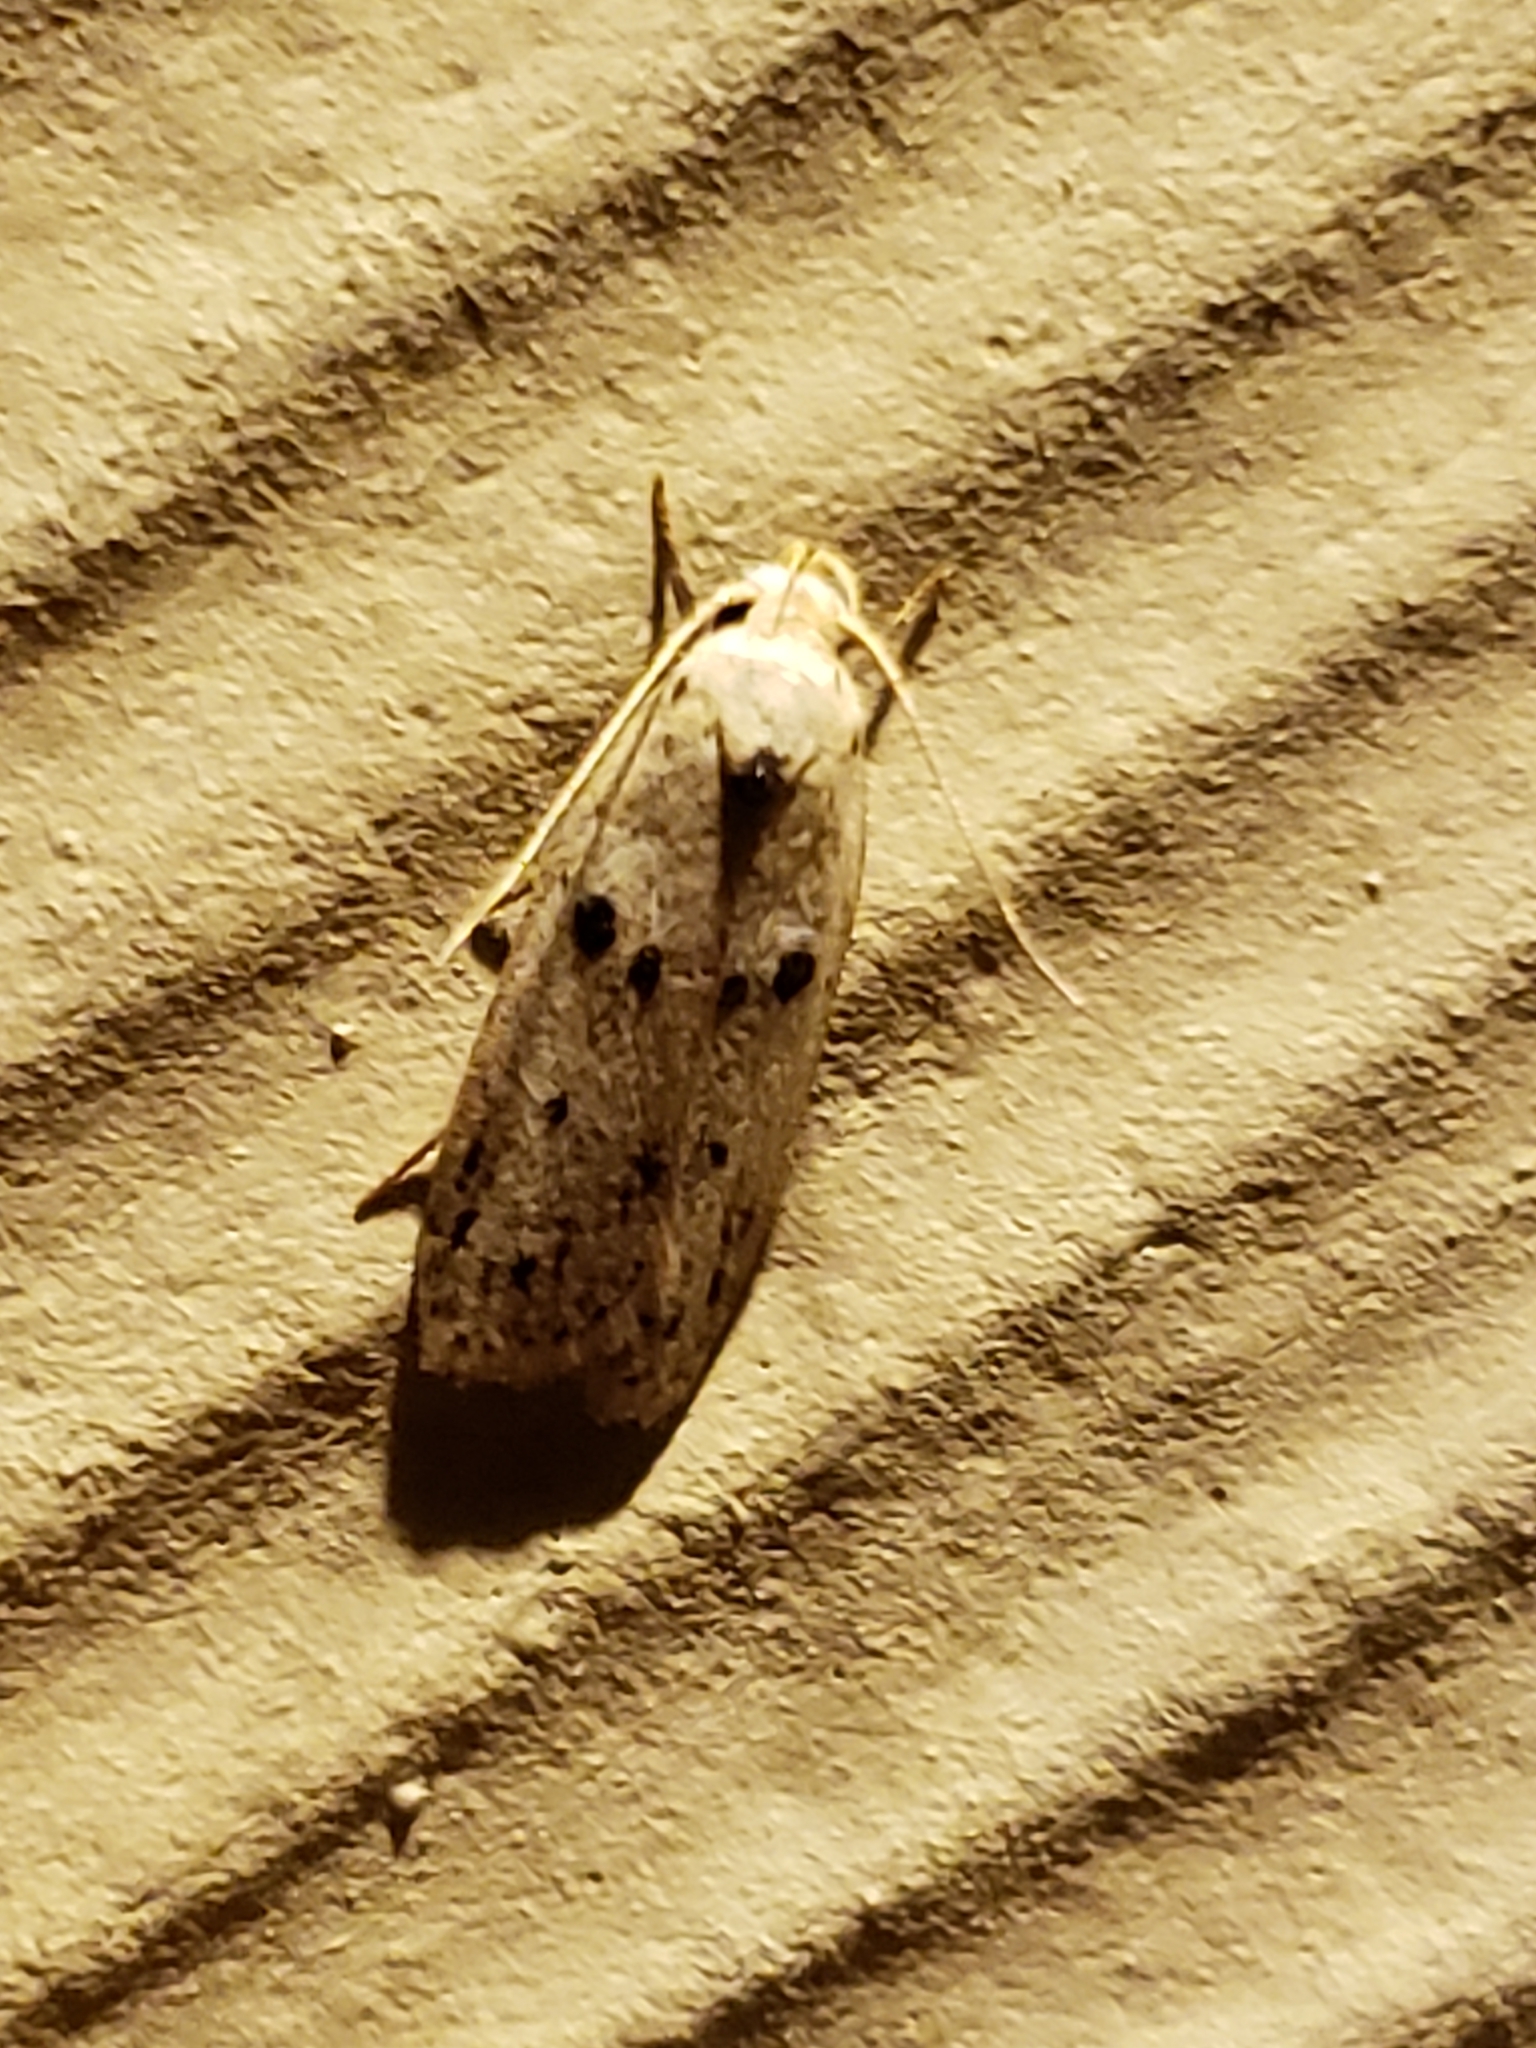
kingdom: Animalia
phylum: Arthropoda
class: Insecta
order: Lepidoptera
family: Peleopodidae
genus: Scythropiodes
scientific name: Scythropiodes issikii
